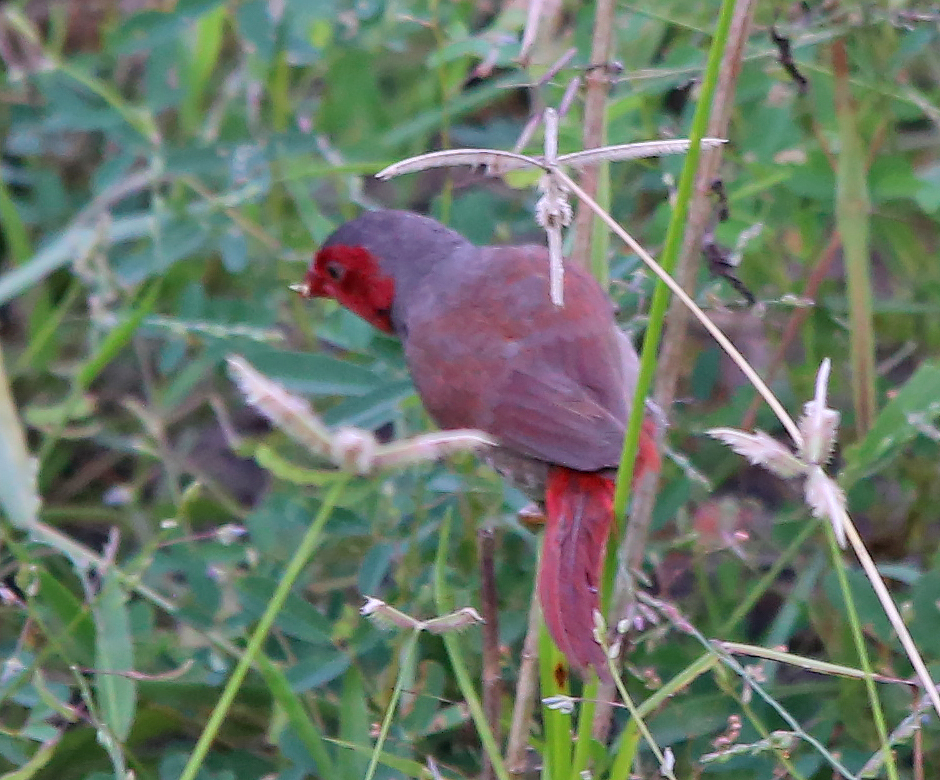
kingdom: Animalia
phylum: Chordata
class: Aves
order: Passeriformes
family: Estrildidae
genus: Neochmia
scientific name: Neochmia phaeton
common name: Crimson finch
